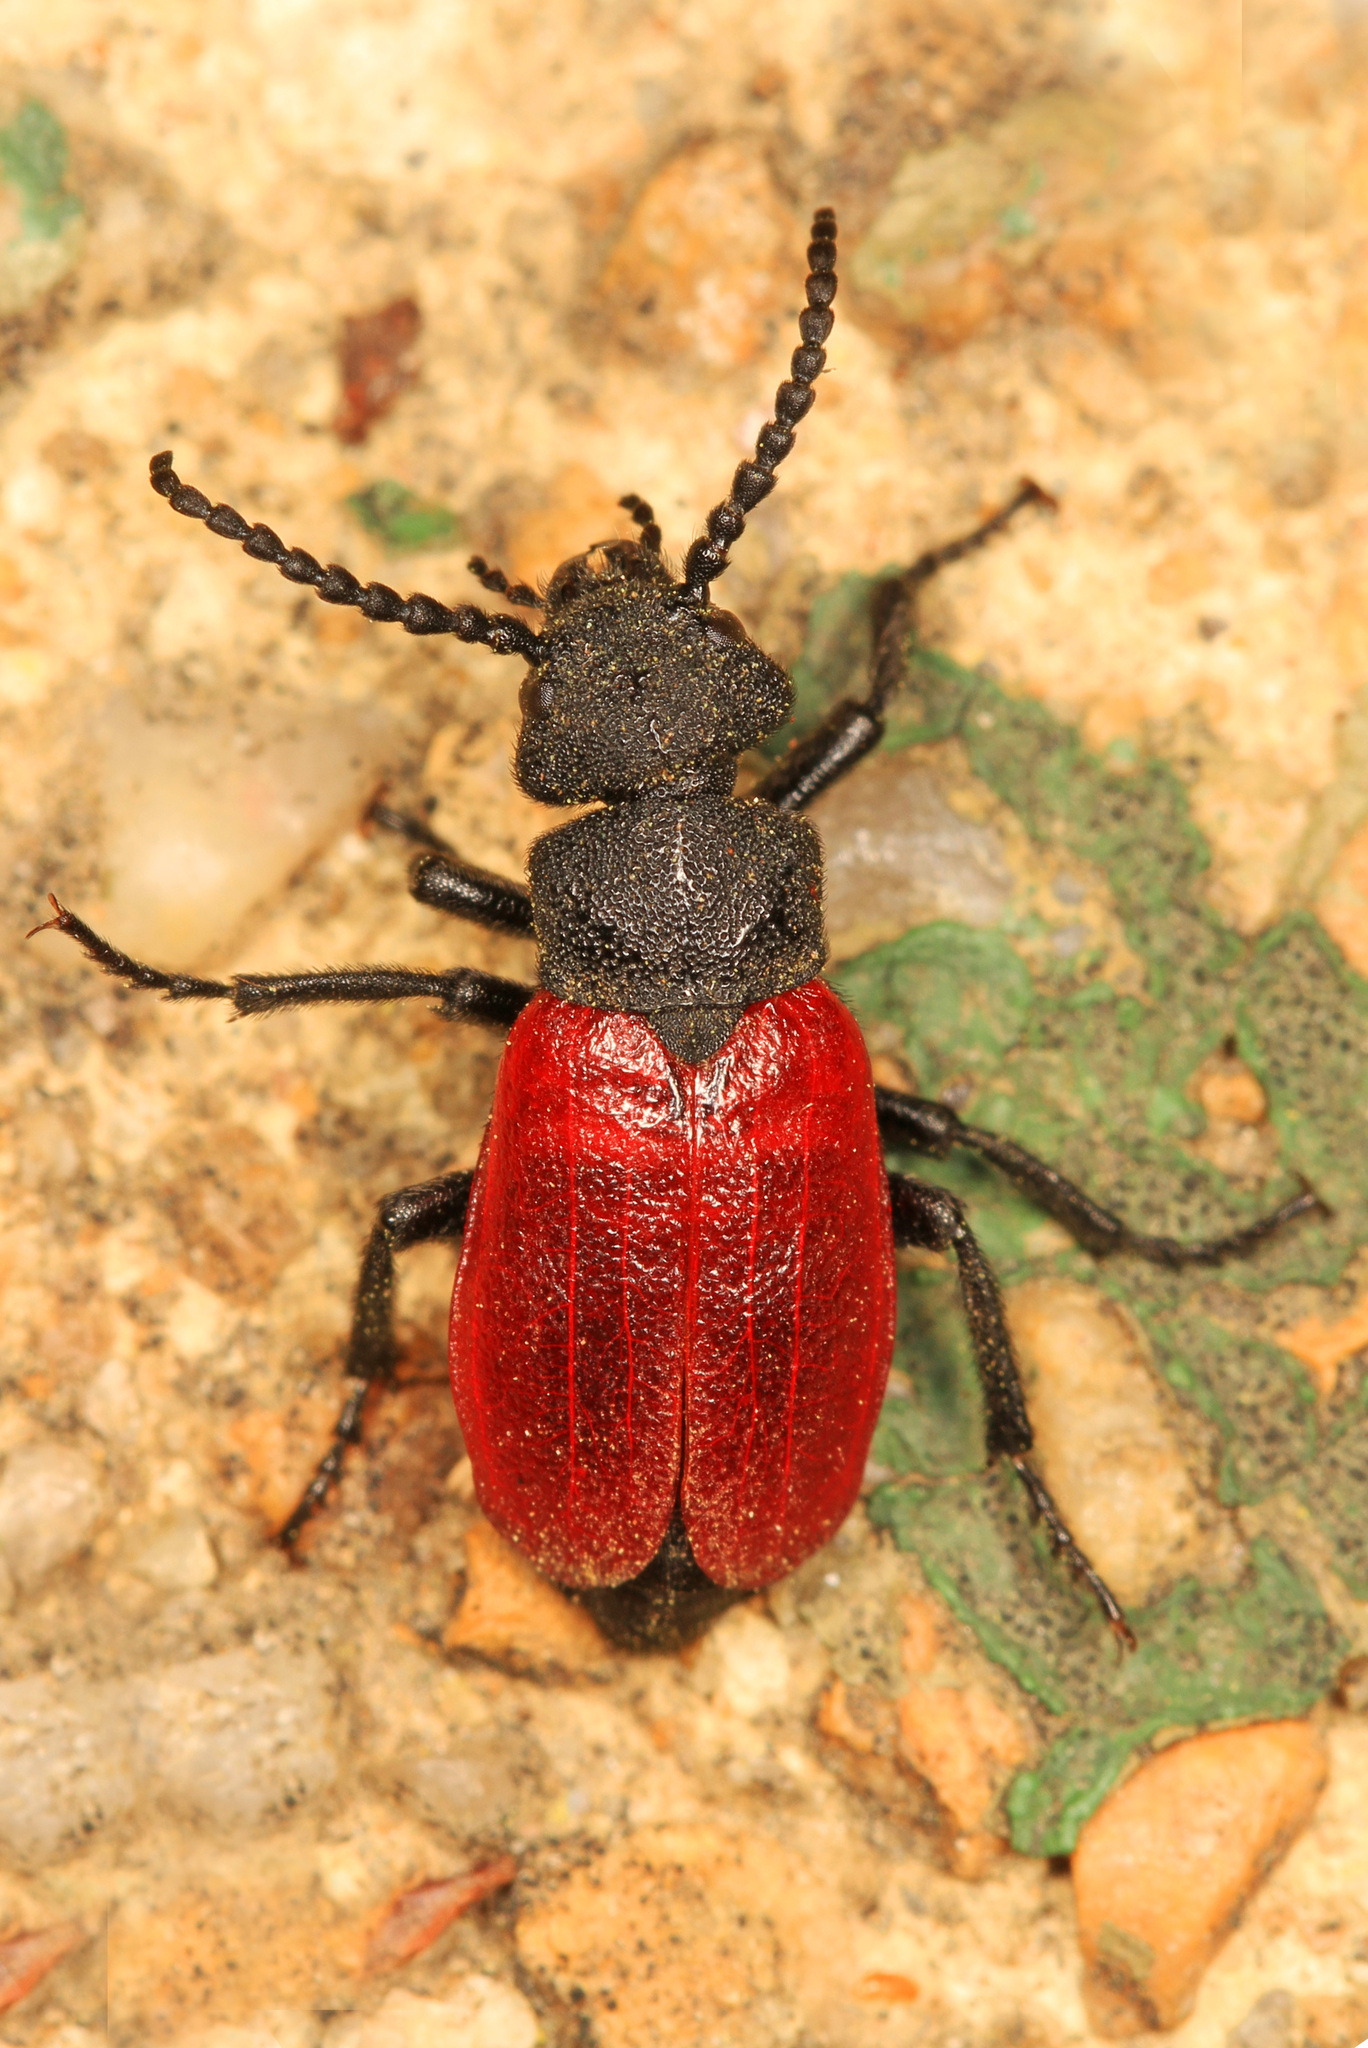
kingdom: Animalia
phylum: Arthropoda
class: Insecta
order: Coleoptera
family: Meloidae
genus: Tricrania
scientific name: Tricrania sanguinipennis
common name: Blood-winged blister beetle
